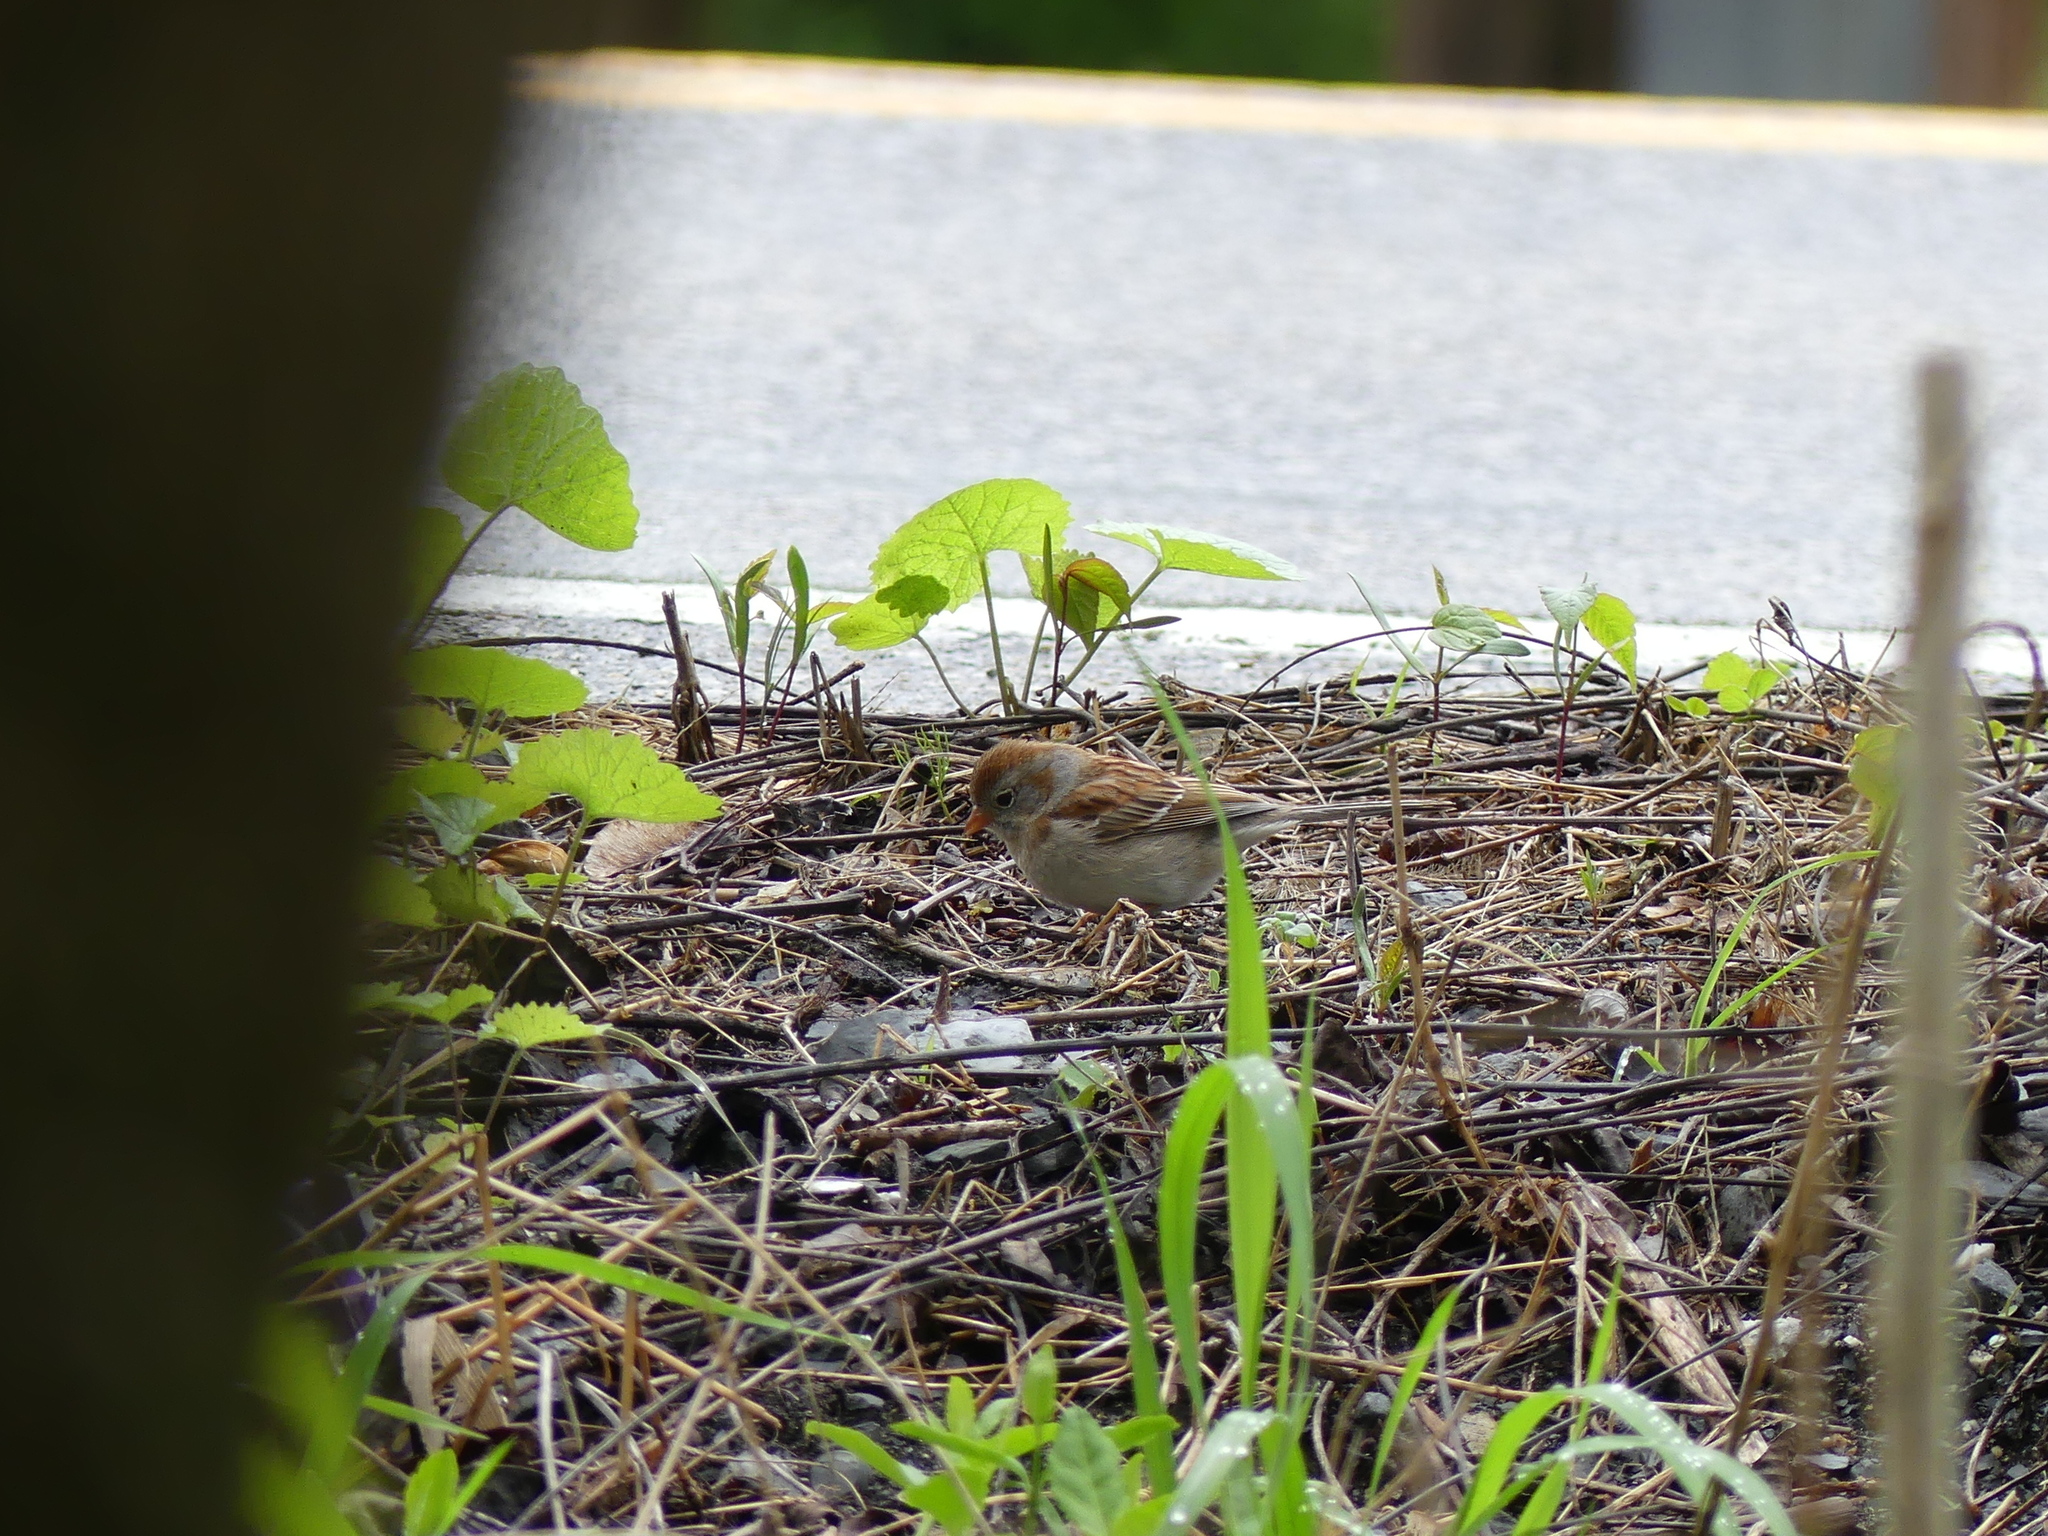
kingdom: Animalia
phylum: Chordata
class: Aves
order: Passeriformes
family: Passerellidae
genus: Spizella
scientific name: Spizella pusilla
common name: Field sparrow
